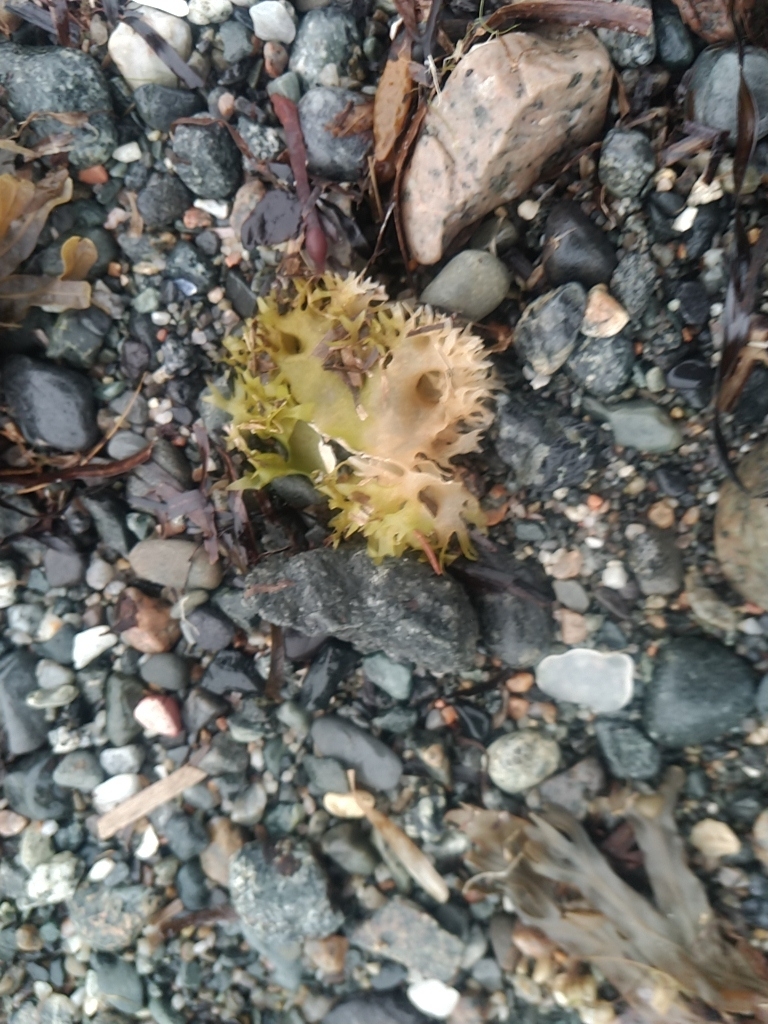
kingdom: Plantae
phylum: Rhodophyta
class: Florideophyceae
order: Gigartinales
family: Gigartinaceae
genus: Chondrus
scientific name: Chondrus crispus
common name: Carrageen
